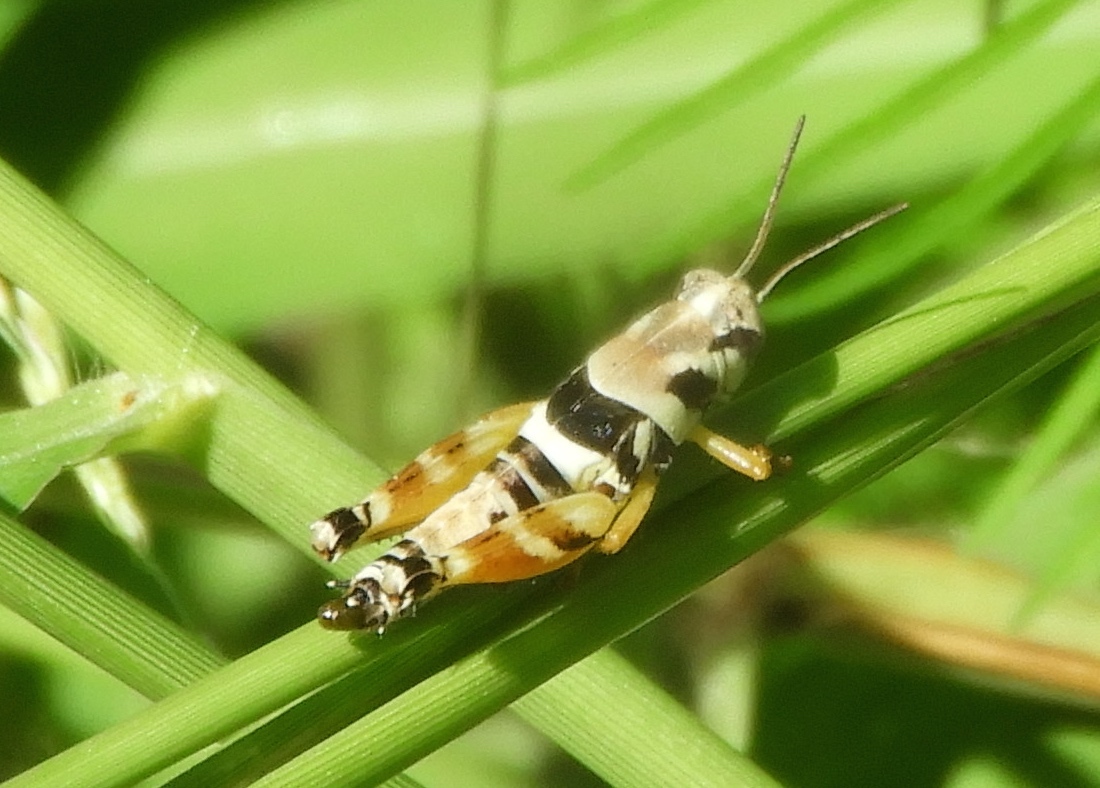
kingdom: Animalia
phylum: Arthropoda
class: Insecta
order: Orthoptera
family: Acrididae
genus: Aidemona
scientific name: Aidemona azteca
